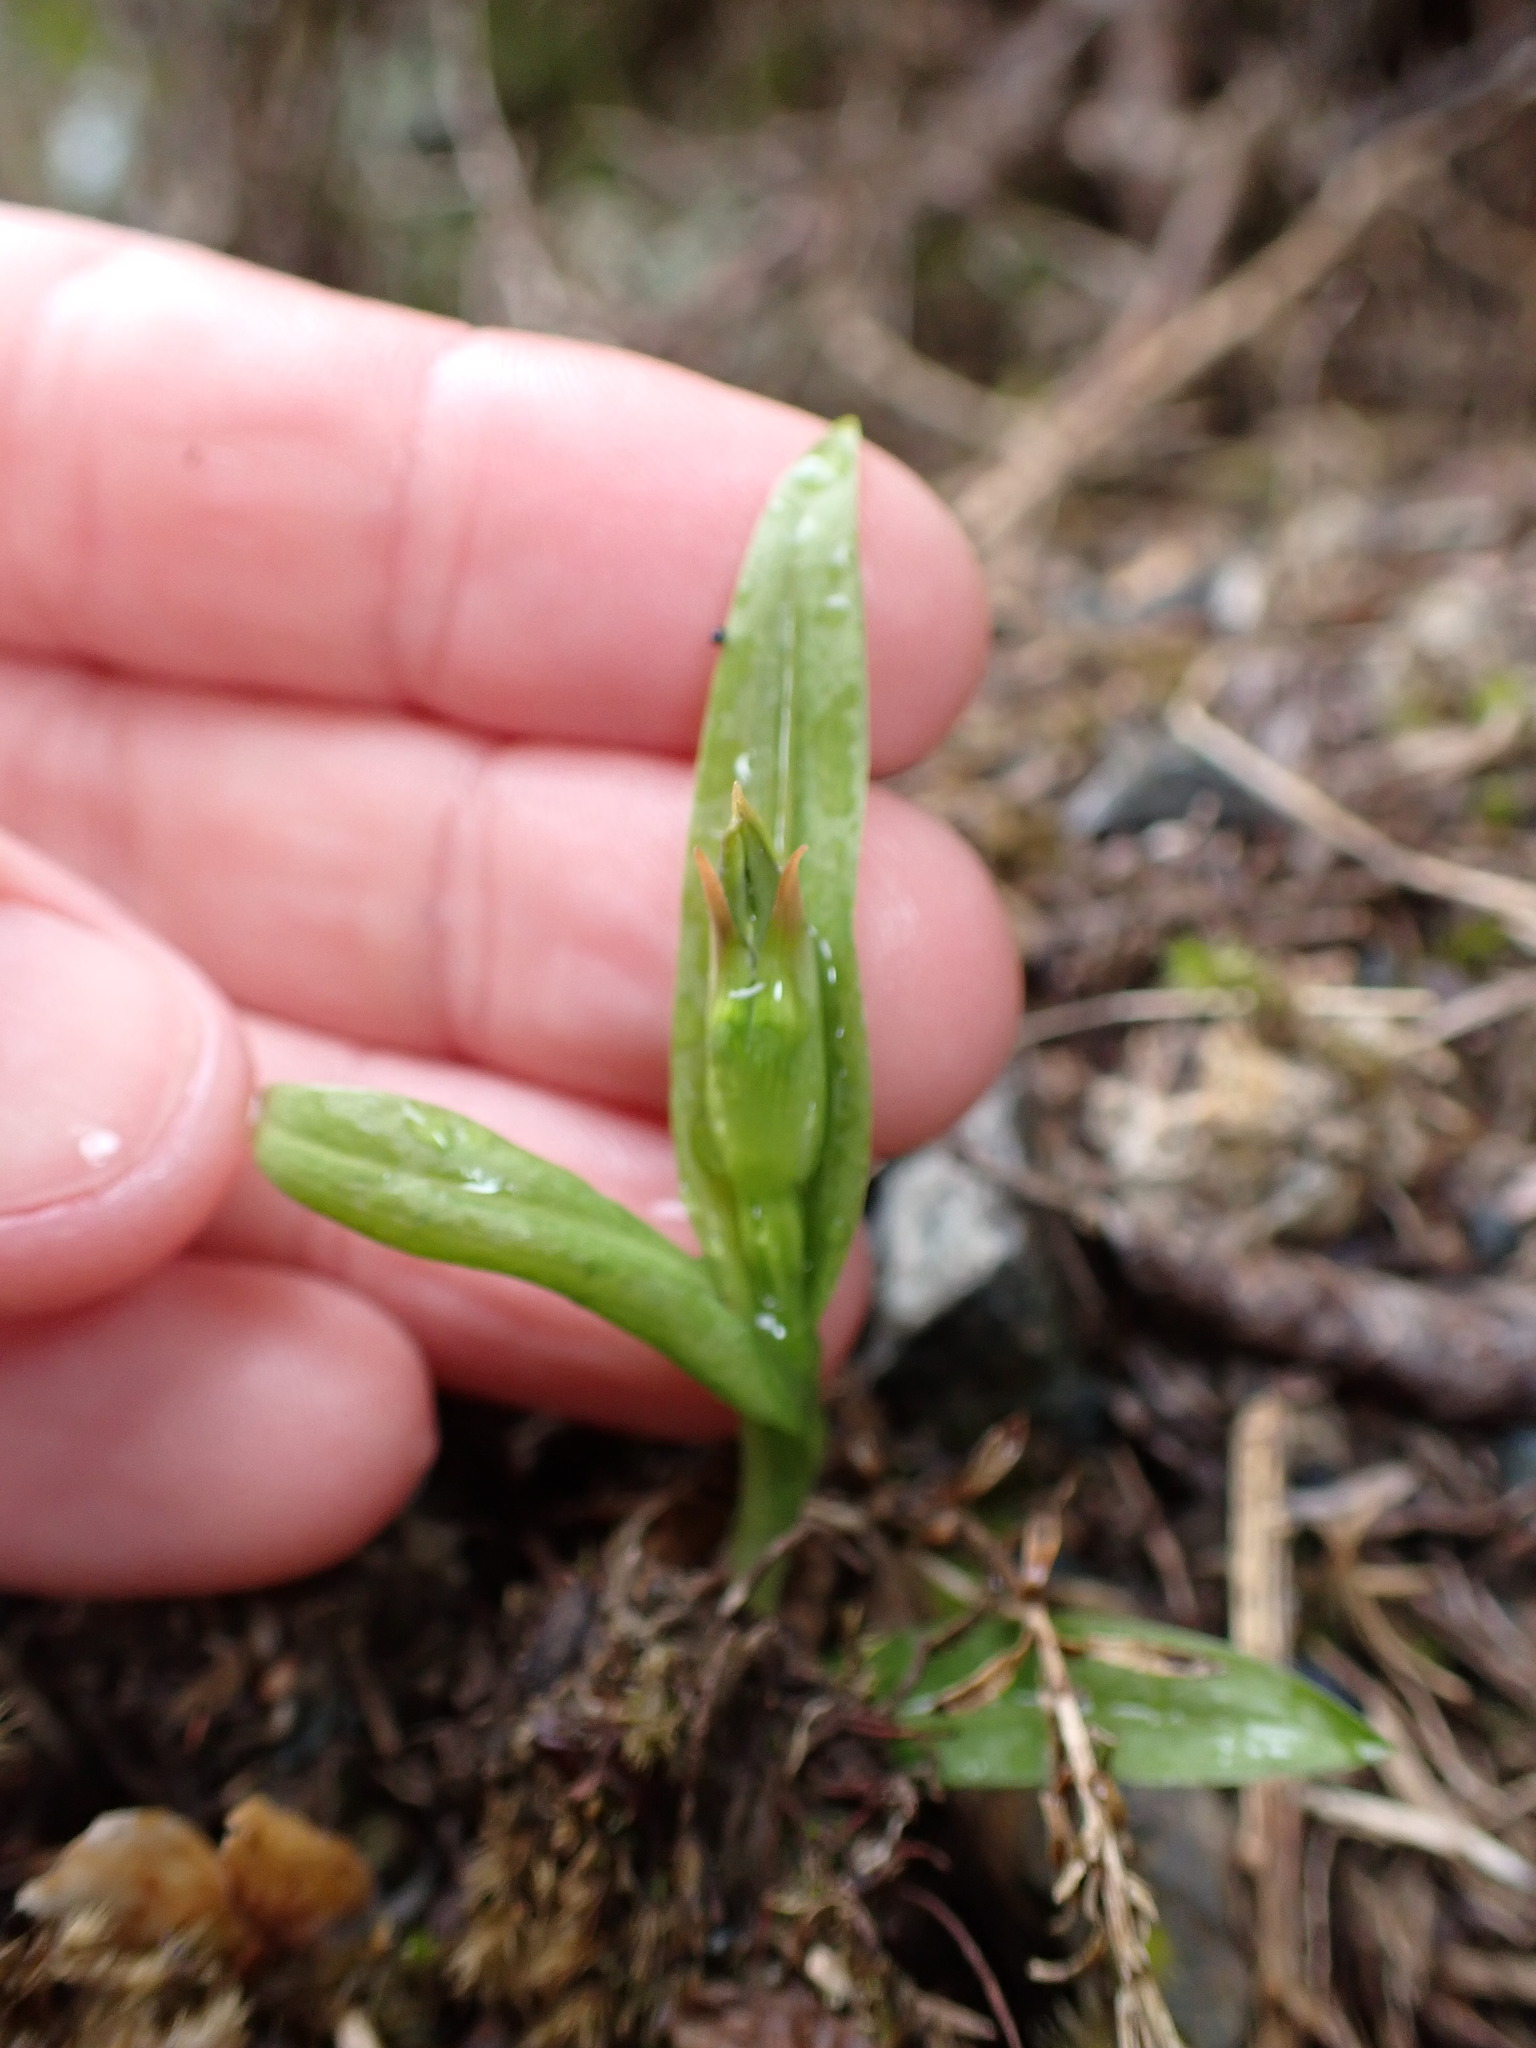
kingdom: Plantae
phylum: Tracheophyta
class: Liliopsida
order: Asparagales
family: Orchidaceae
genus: Pterostylis
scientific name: Pterostylis montana
